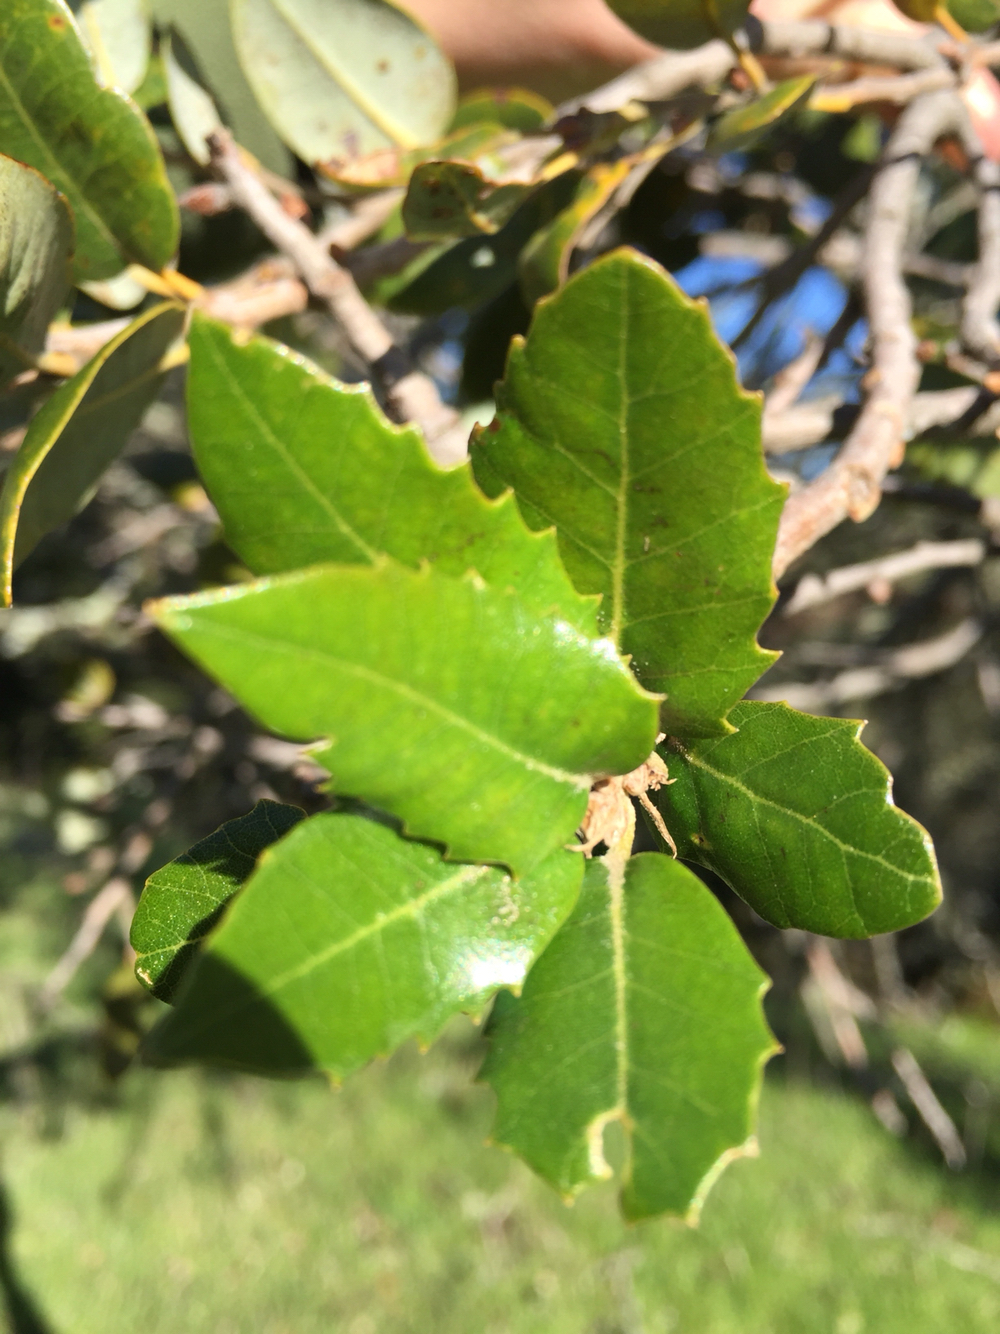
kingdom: Plantae
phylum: Tracheophyta
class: Magnoliopsida
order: Fagales
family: Fagaceae
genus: Quercus
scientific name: Quercus chrysolepis
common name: Canyon live oak
